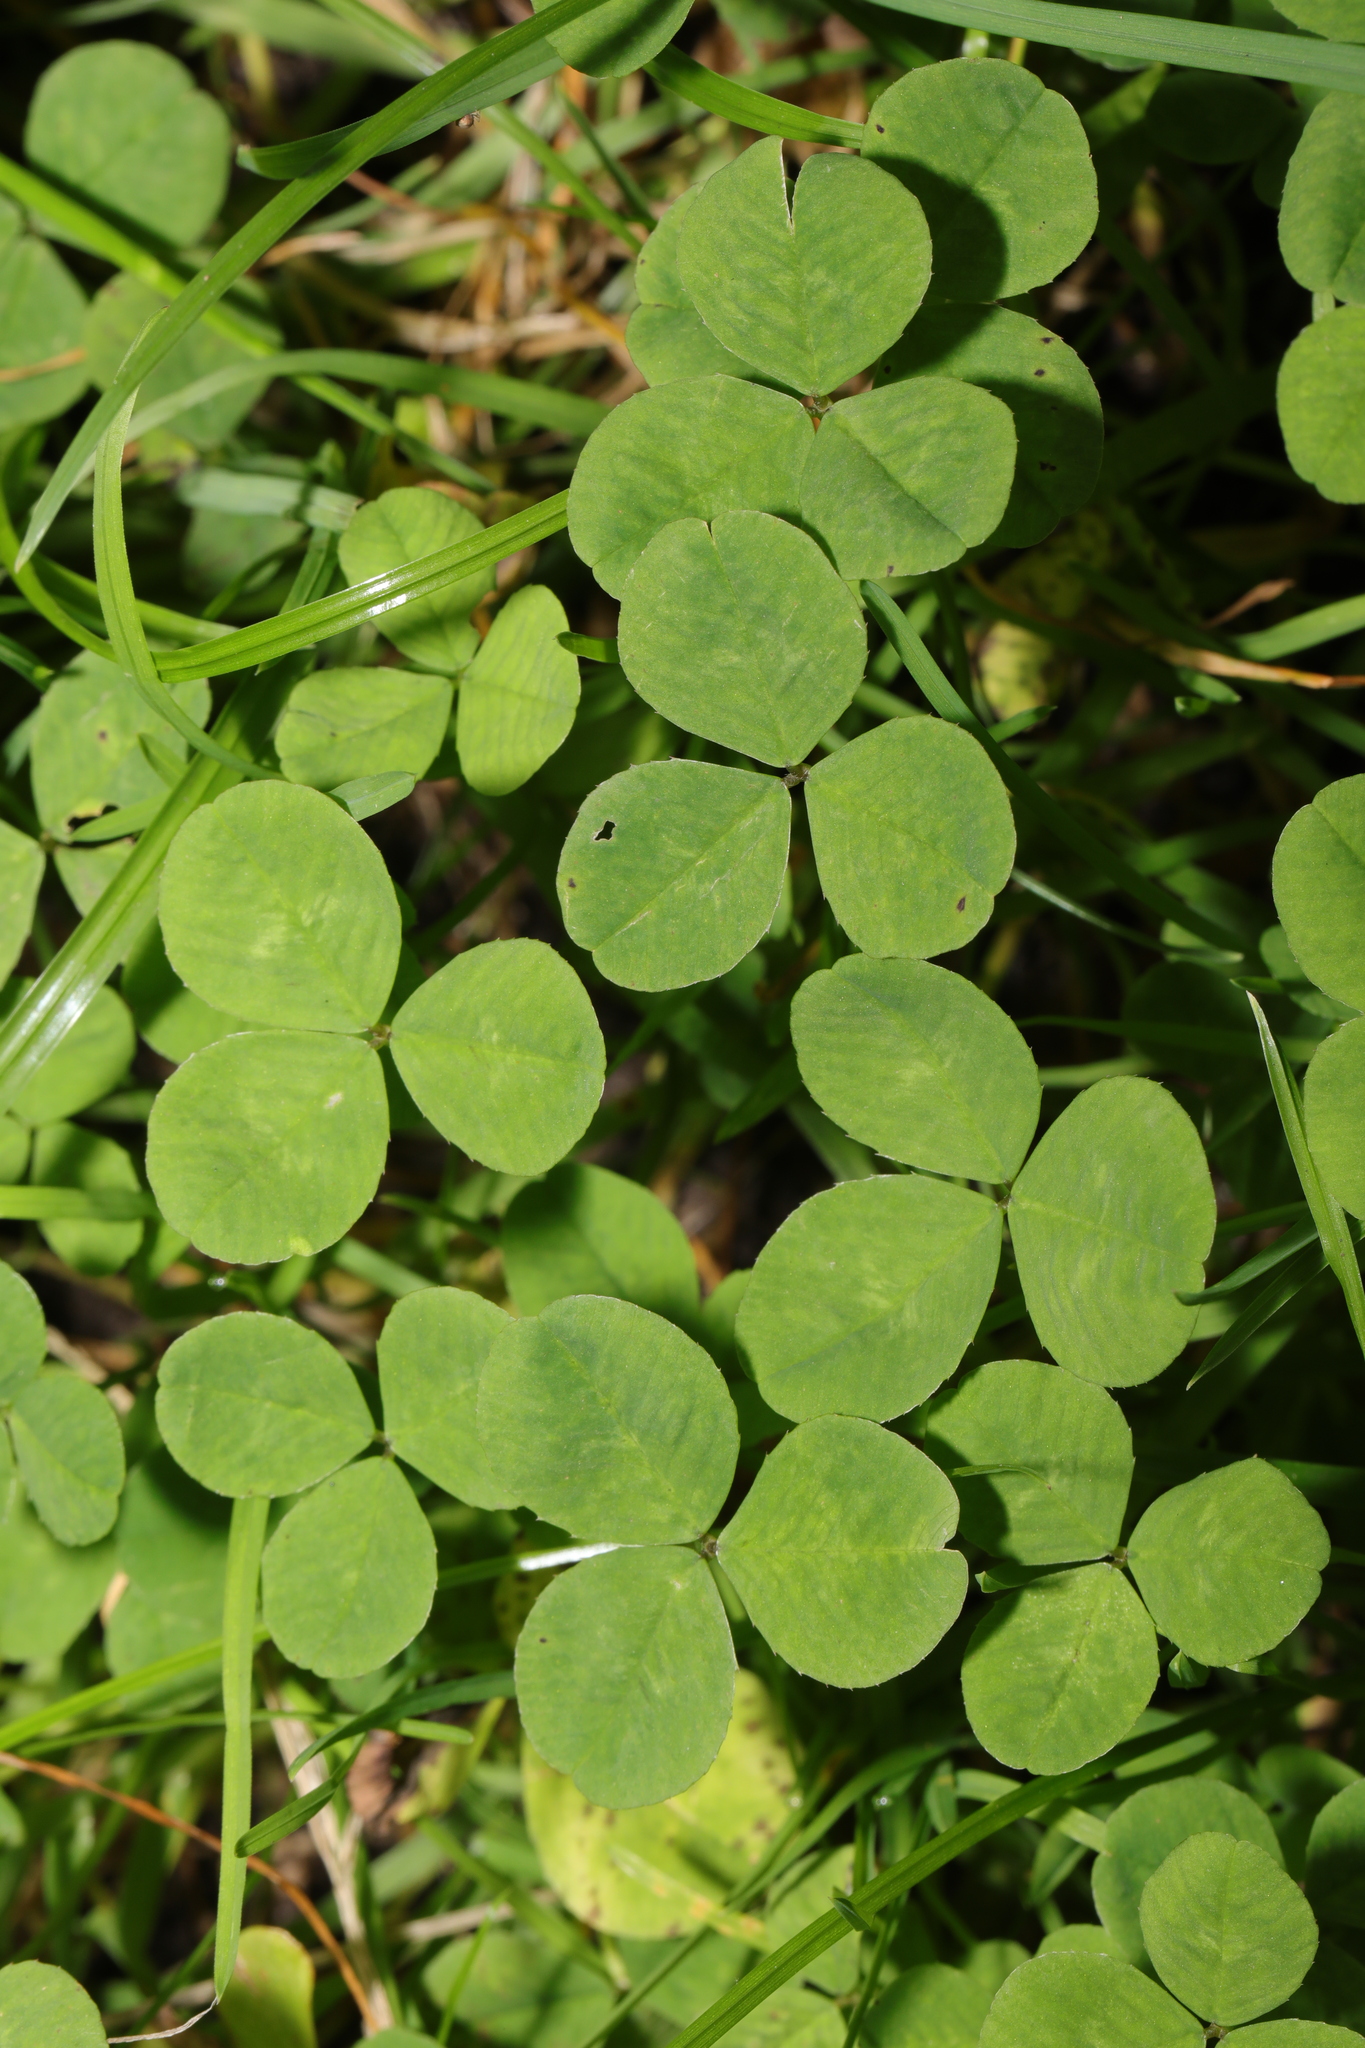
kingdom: Plantae
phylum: Tracheophyta
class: Magnoliopsida
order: Fabales
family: Fabaceae
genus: Trifolium
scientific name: Trifolium repens
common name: White clover
